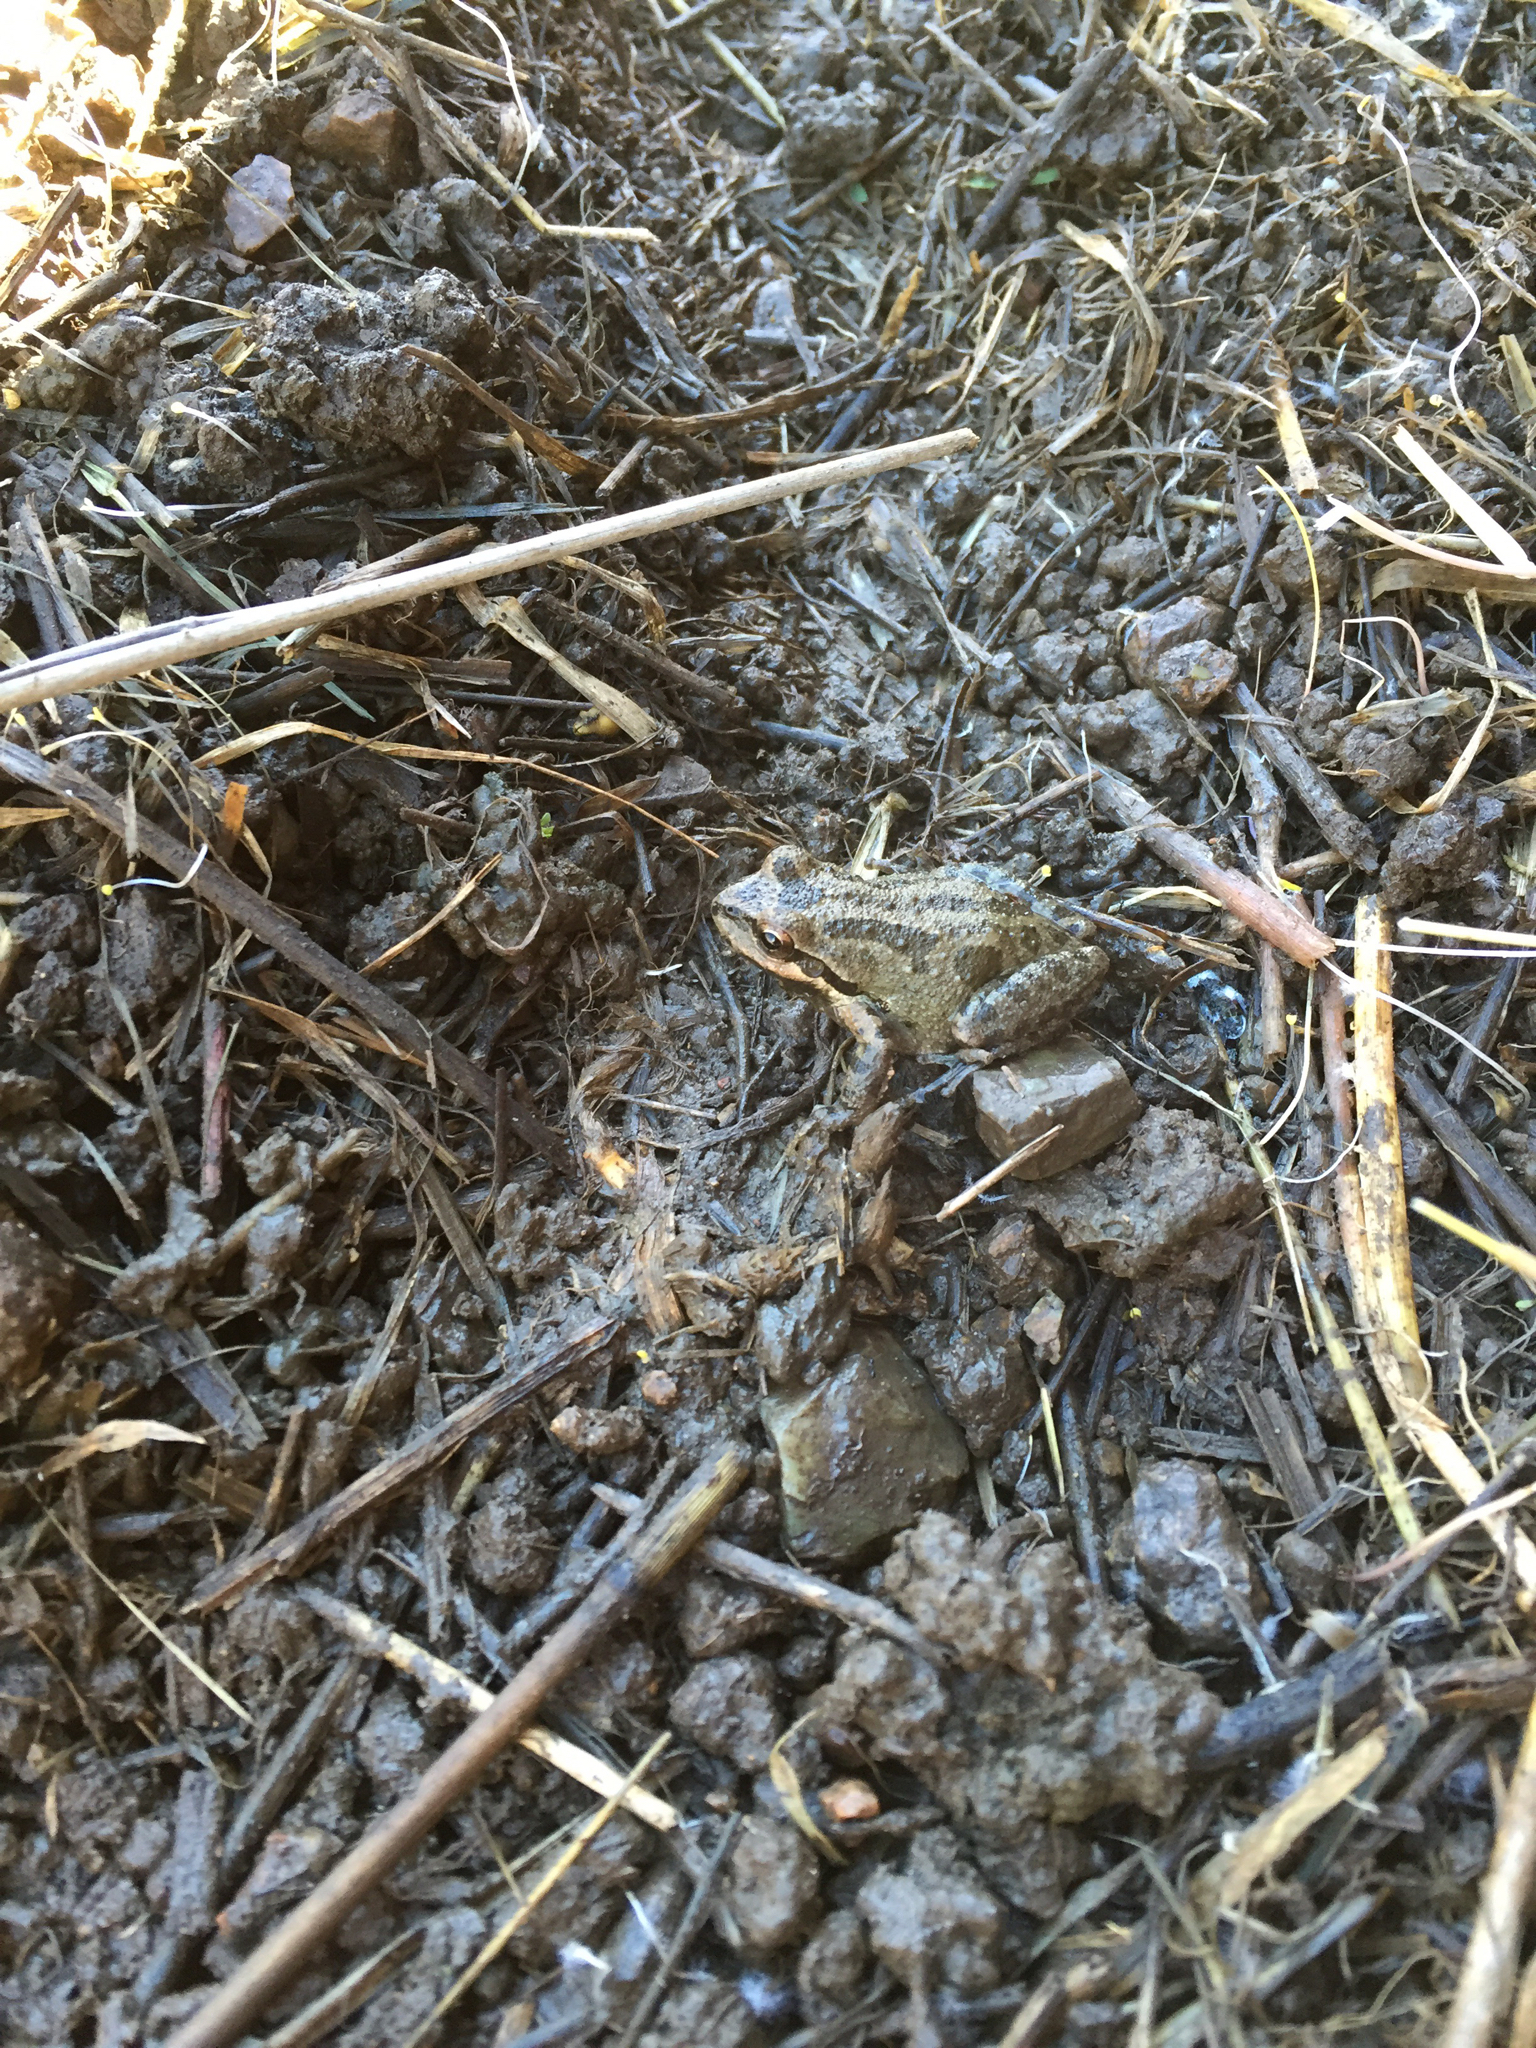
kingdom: Animalia
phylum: Chordata
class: Amphibia
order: Anura
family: Hylidae
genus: Pseudacris
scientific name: Pseudacris regilla
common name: Pacific chorus frog
